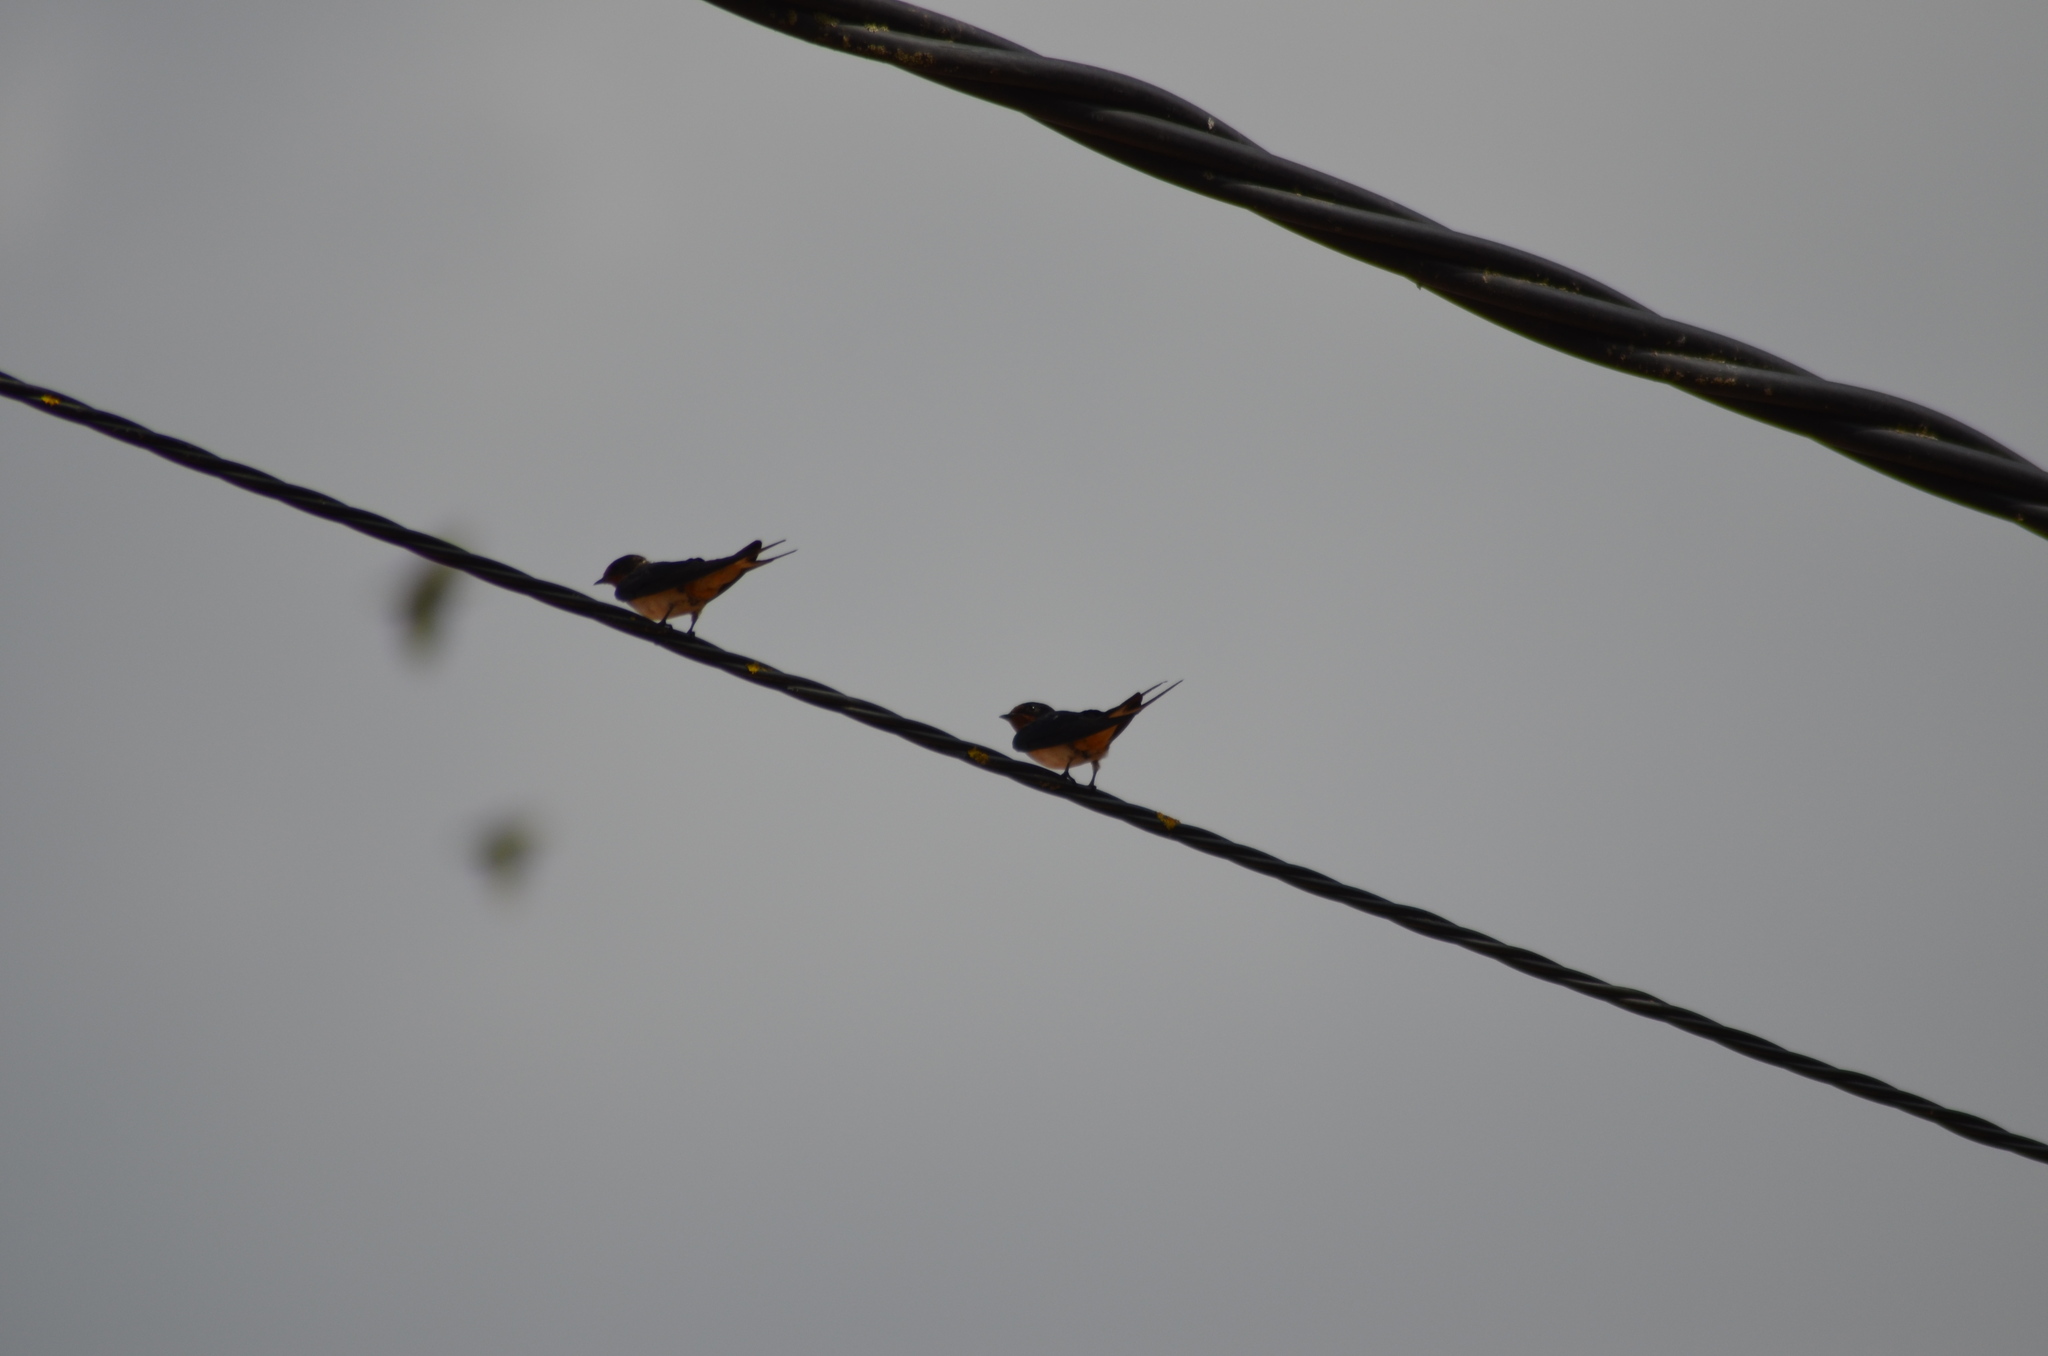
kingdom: Animalia
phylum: Chordata
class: Aves
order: Passeriformes
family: Hirundinidae
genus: Hirundo
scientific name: Hirundo rustica
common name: Barn swallow
